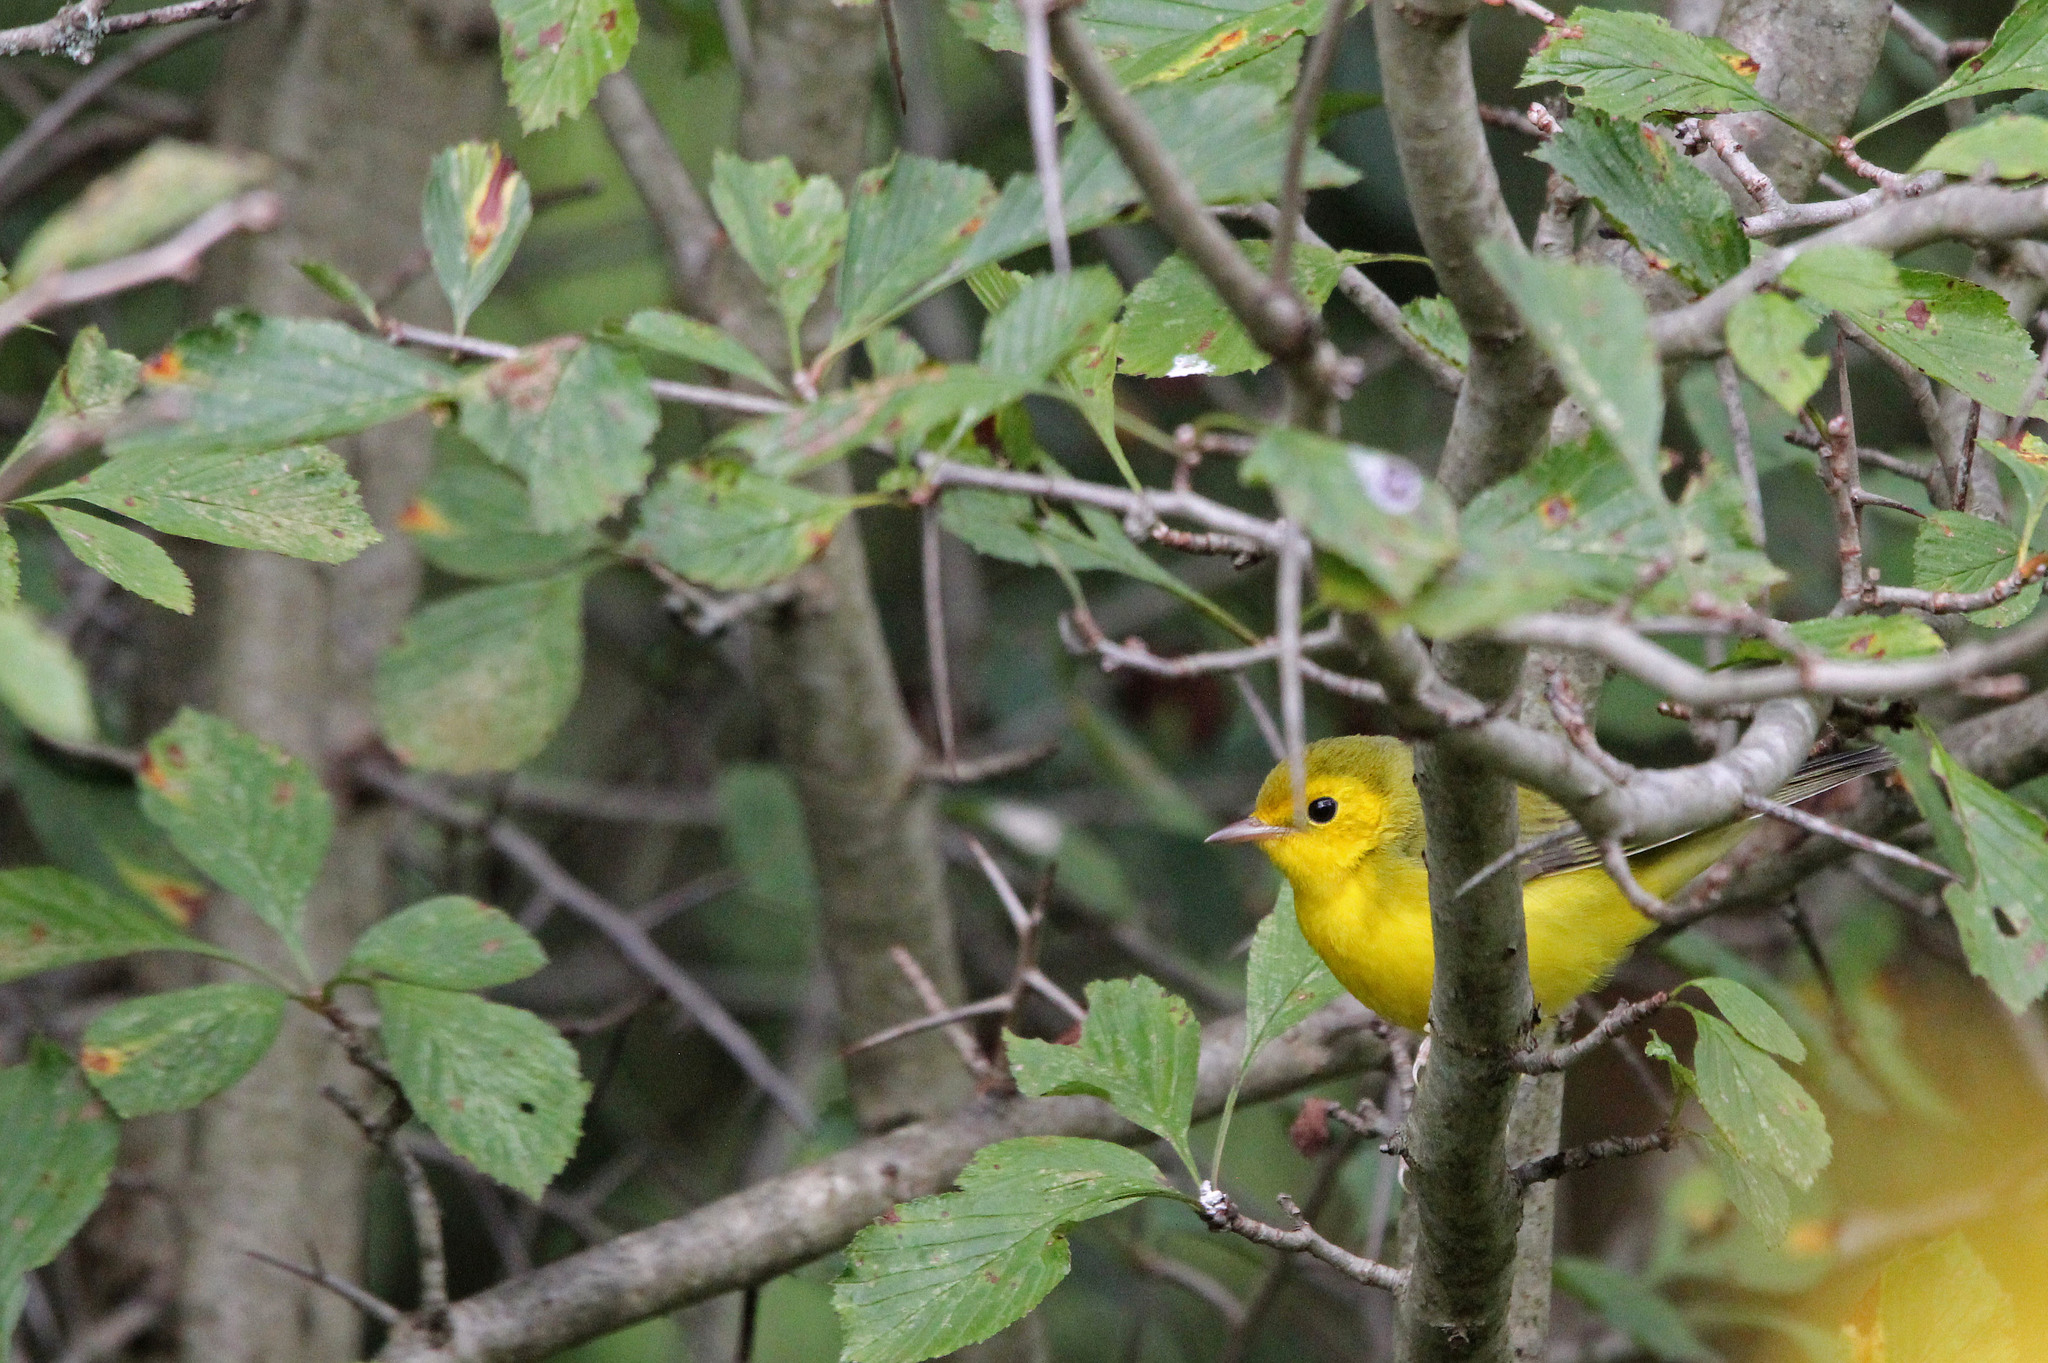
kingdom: Animalia
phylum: Chordata
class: Aves
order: Passeriformes
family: Parulidae
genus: Setophaga
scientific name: Setophaga citrina
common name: Hooded warbler
